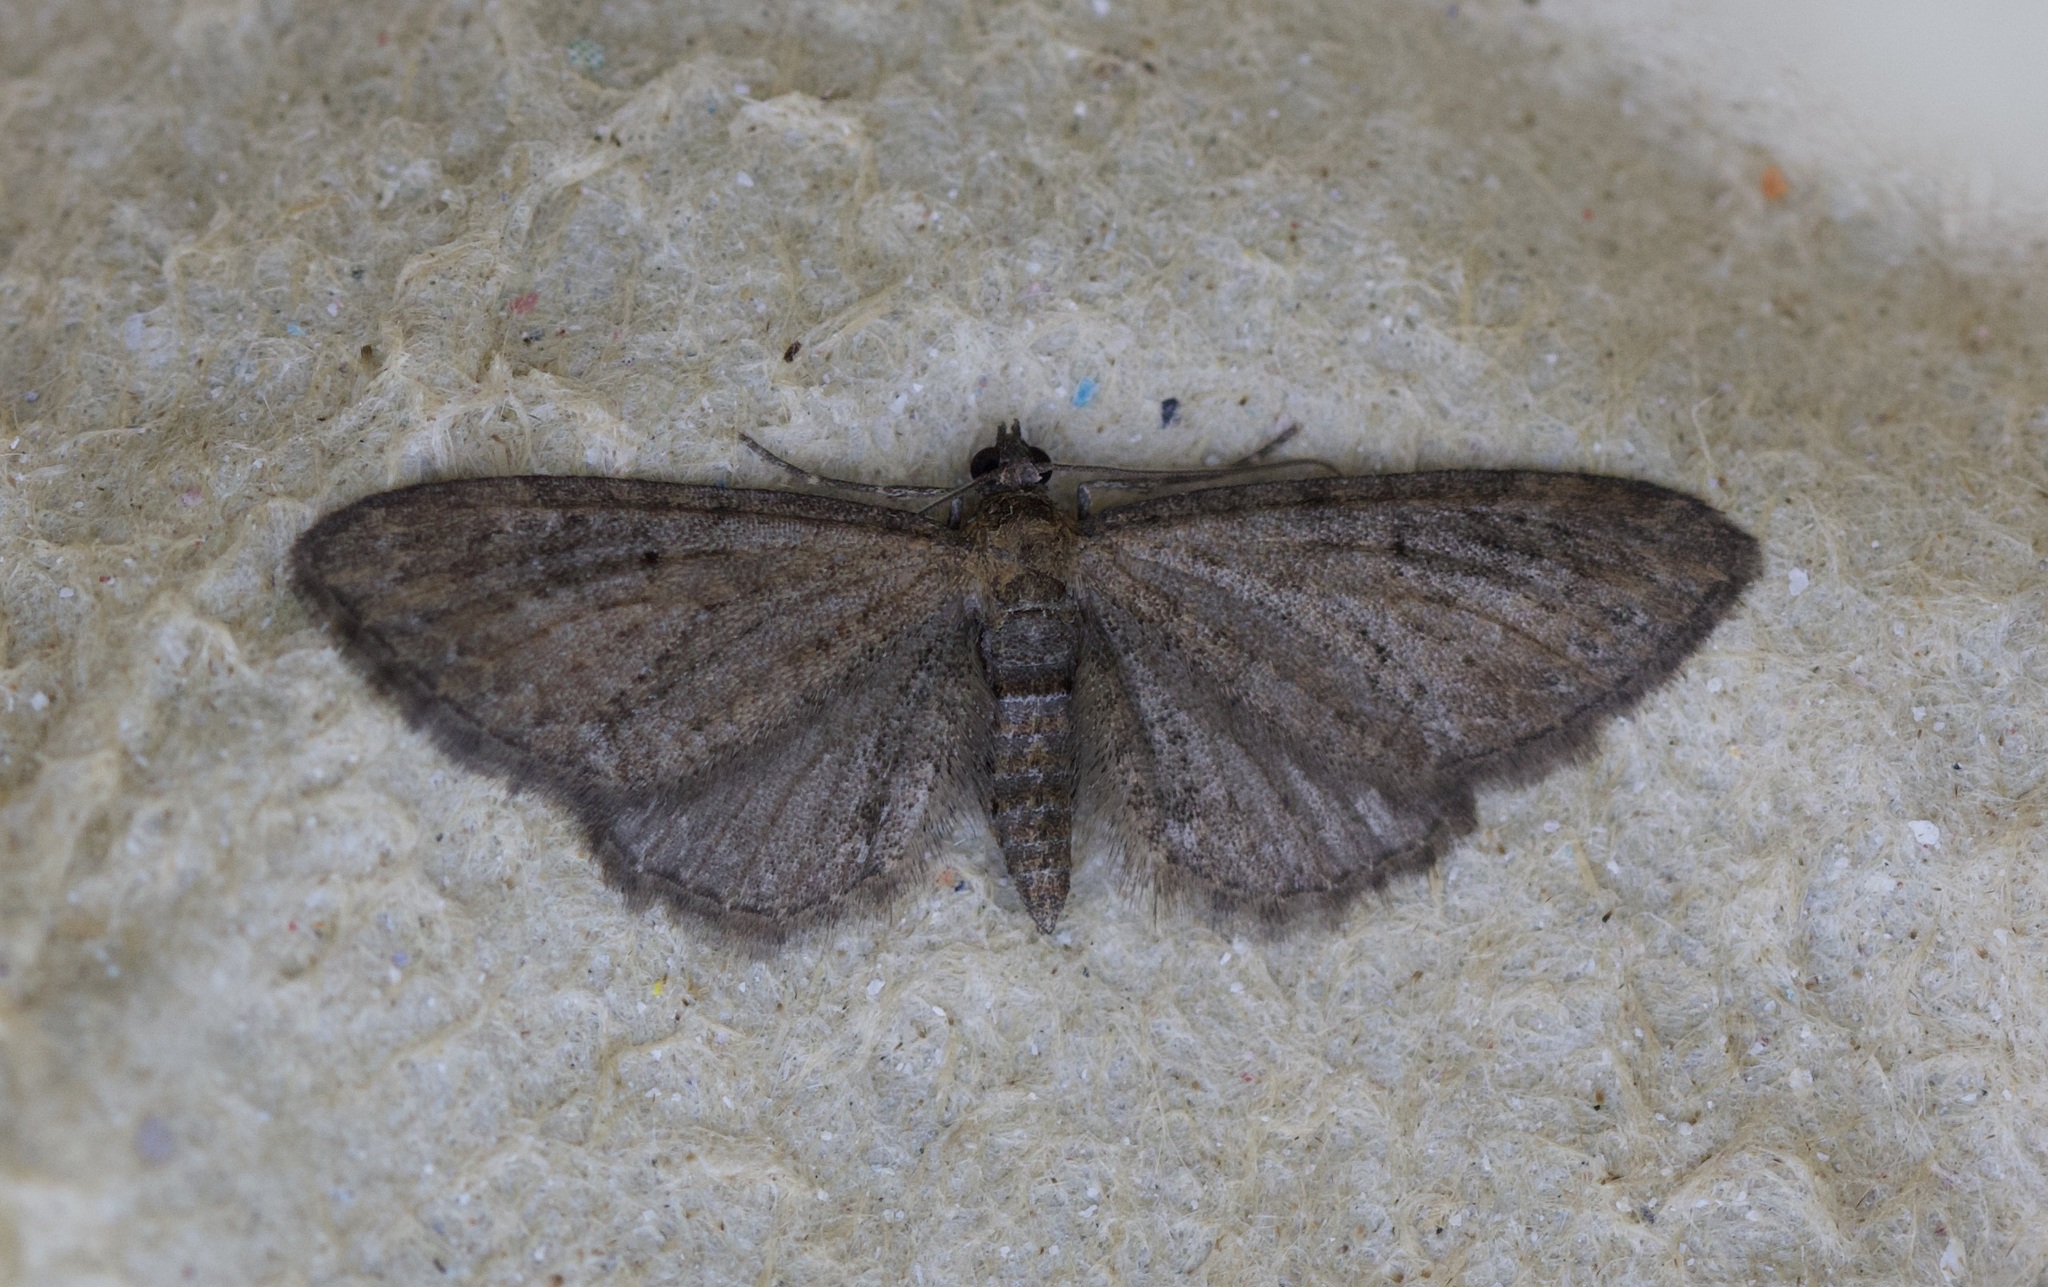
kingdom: Animalia
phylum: Arthropoda
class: Insecta
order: Lepidoptera
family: Geometridae
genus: Eupithecia
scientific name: Eupithecia vulgata
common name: Common pug
